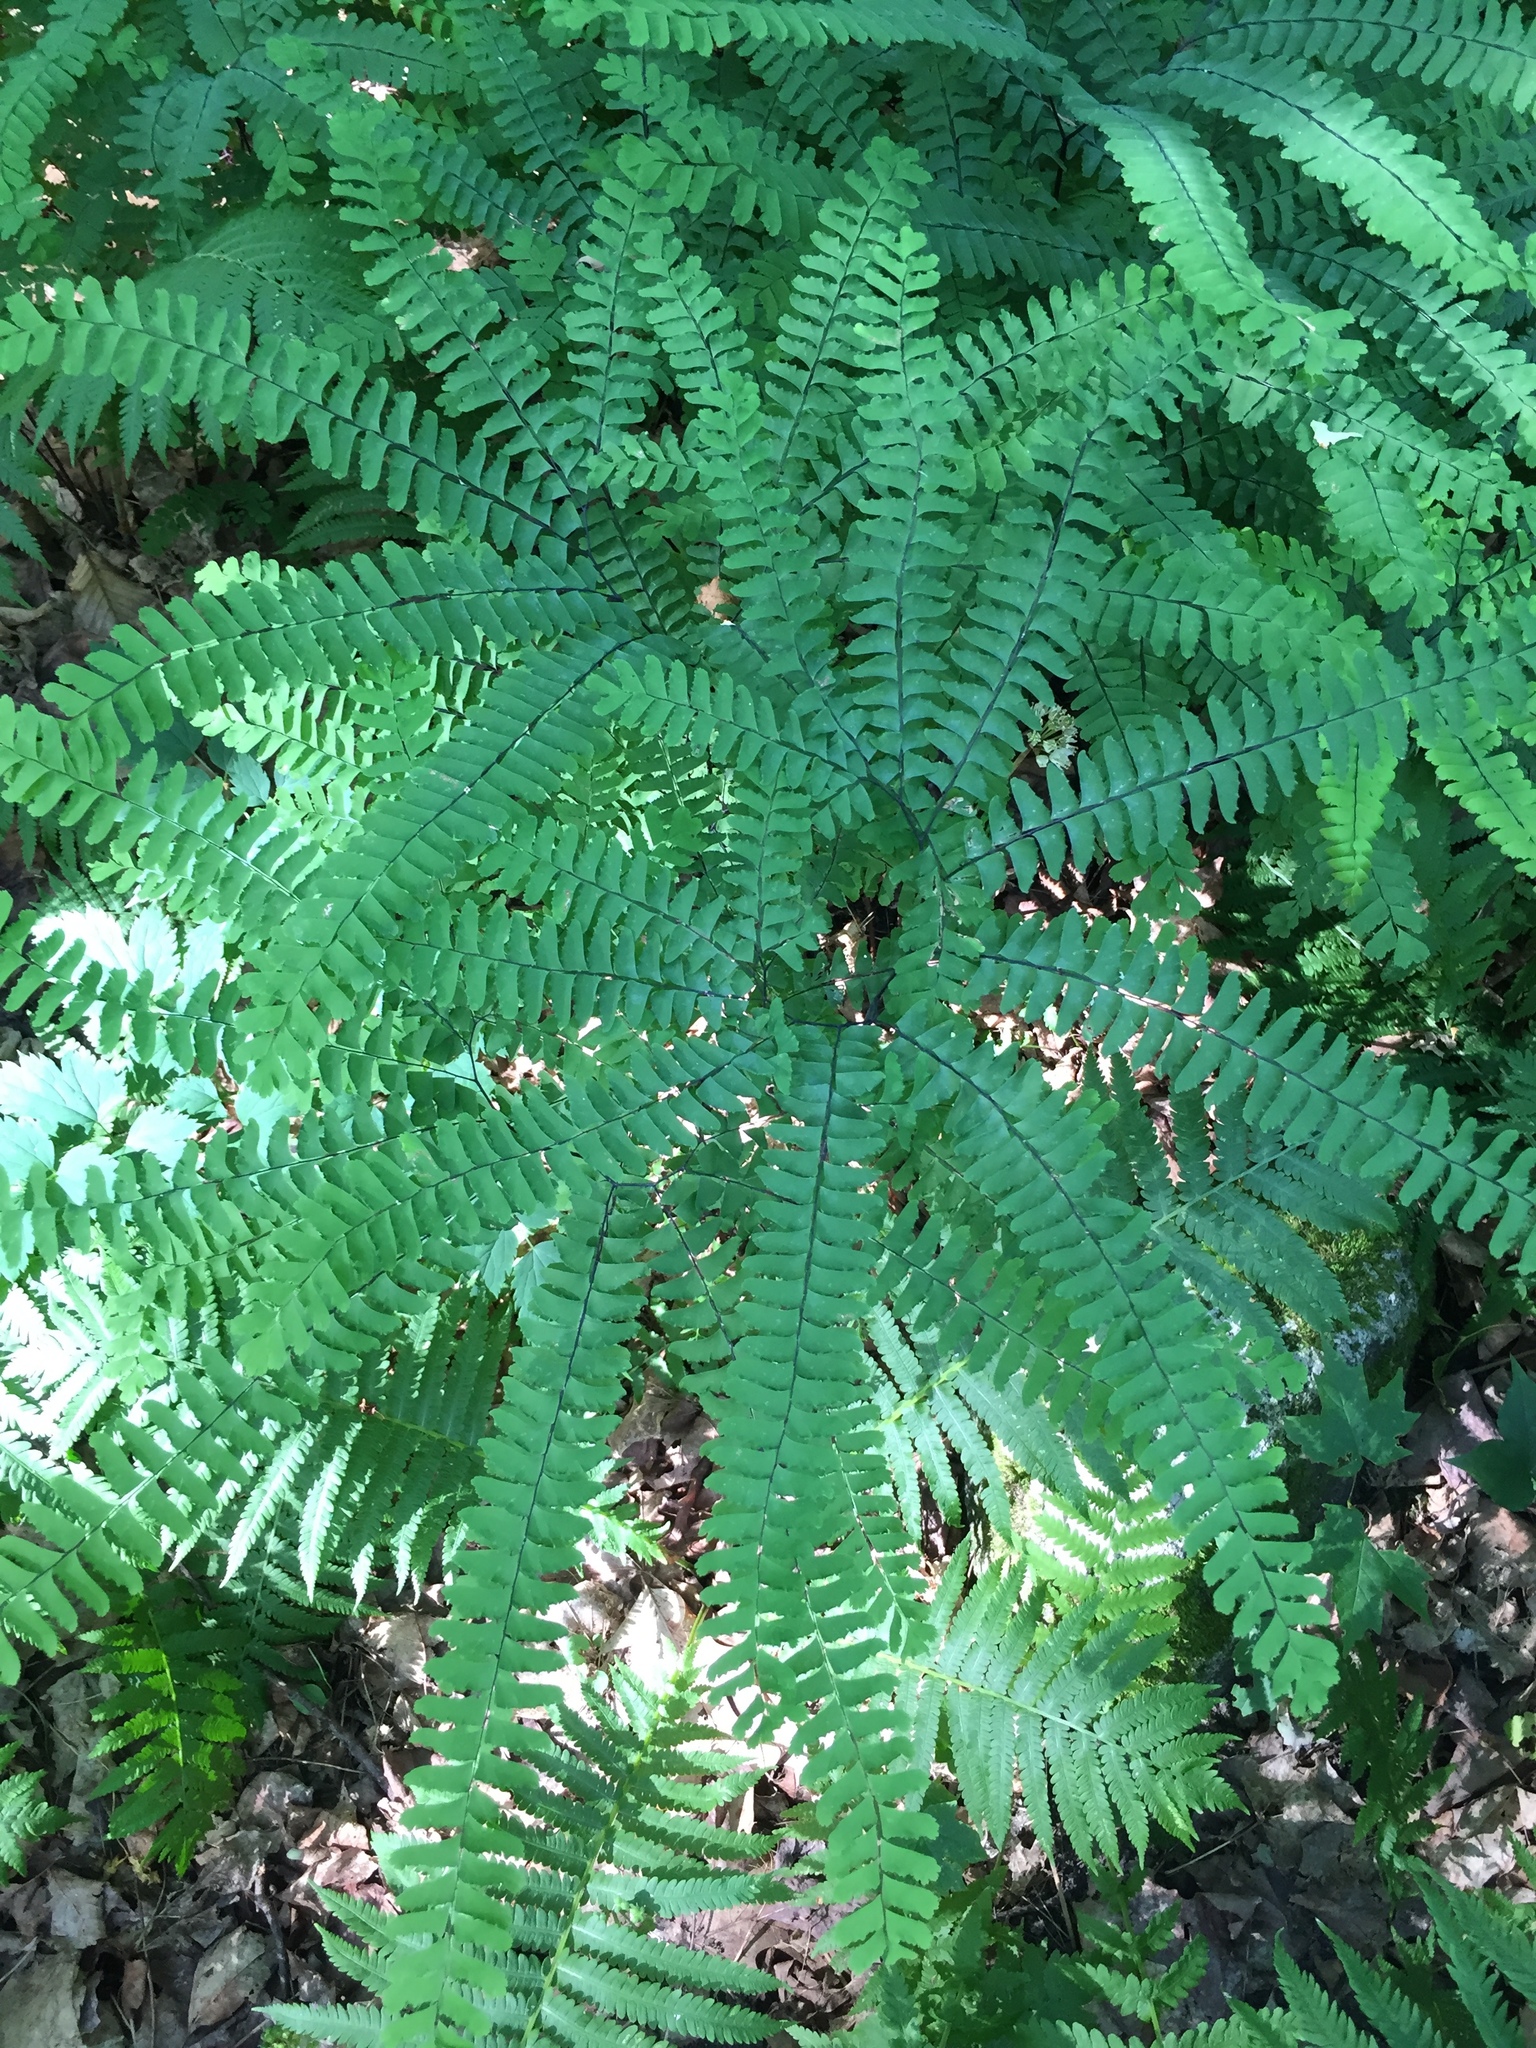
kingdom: Plantae
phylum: Tracheophyta
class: Polypodiopsida
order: Polypodiales
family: Pteridaceae
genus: Adiantum
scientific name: Adiantum pedatum
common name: Five-finger fern
